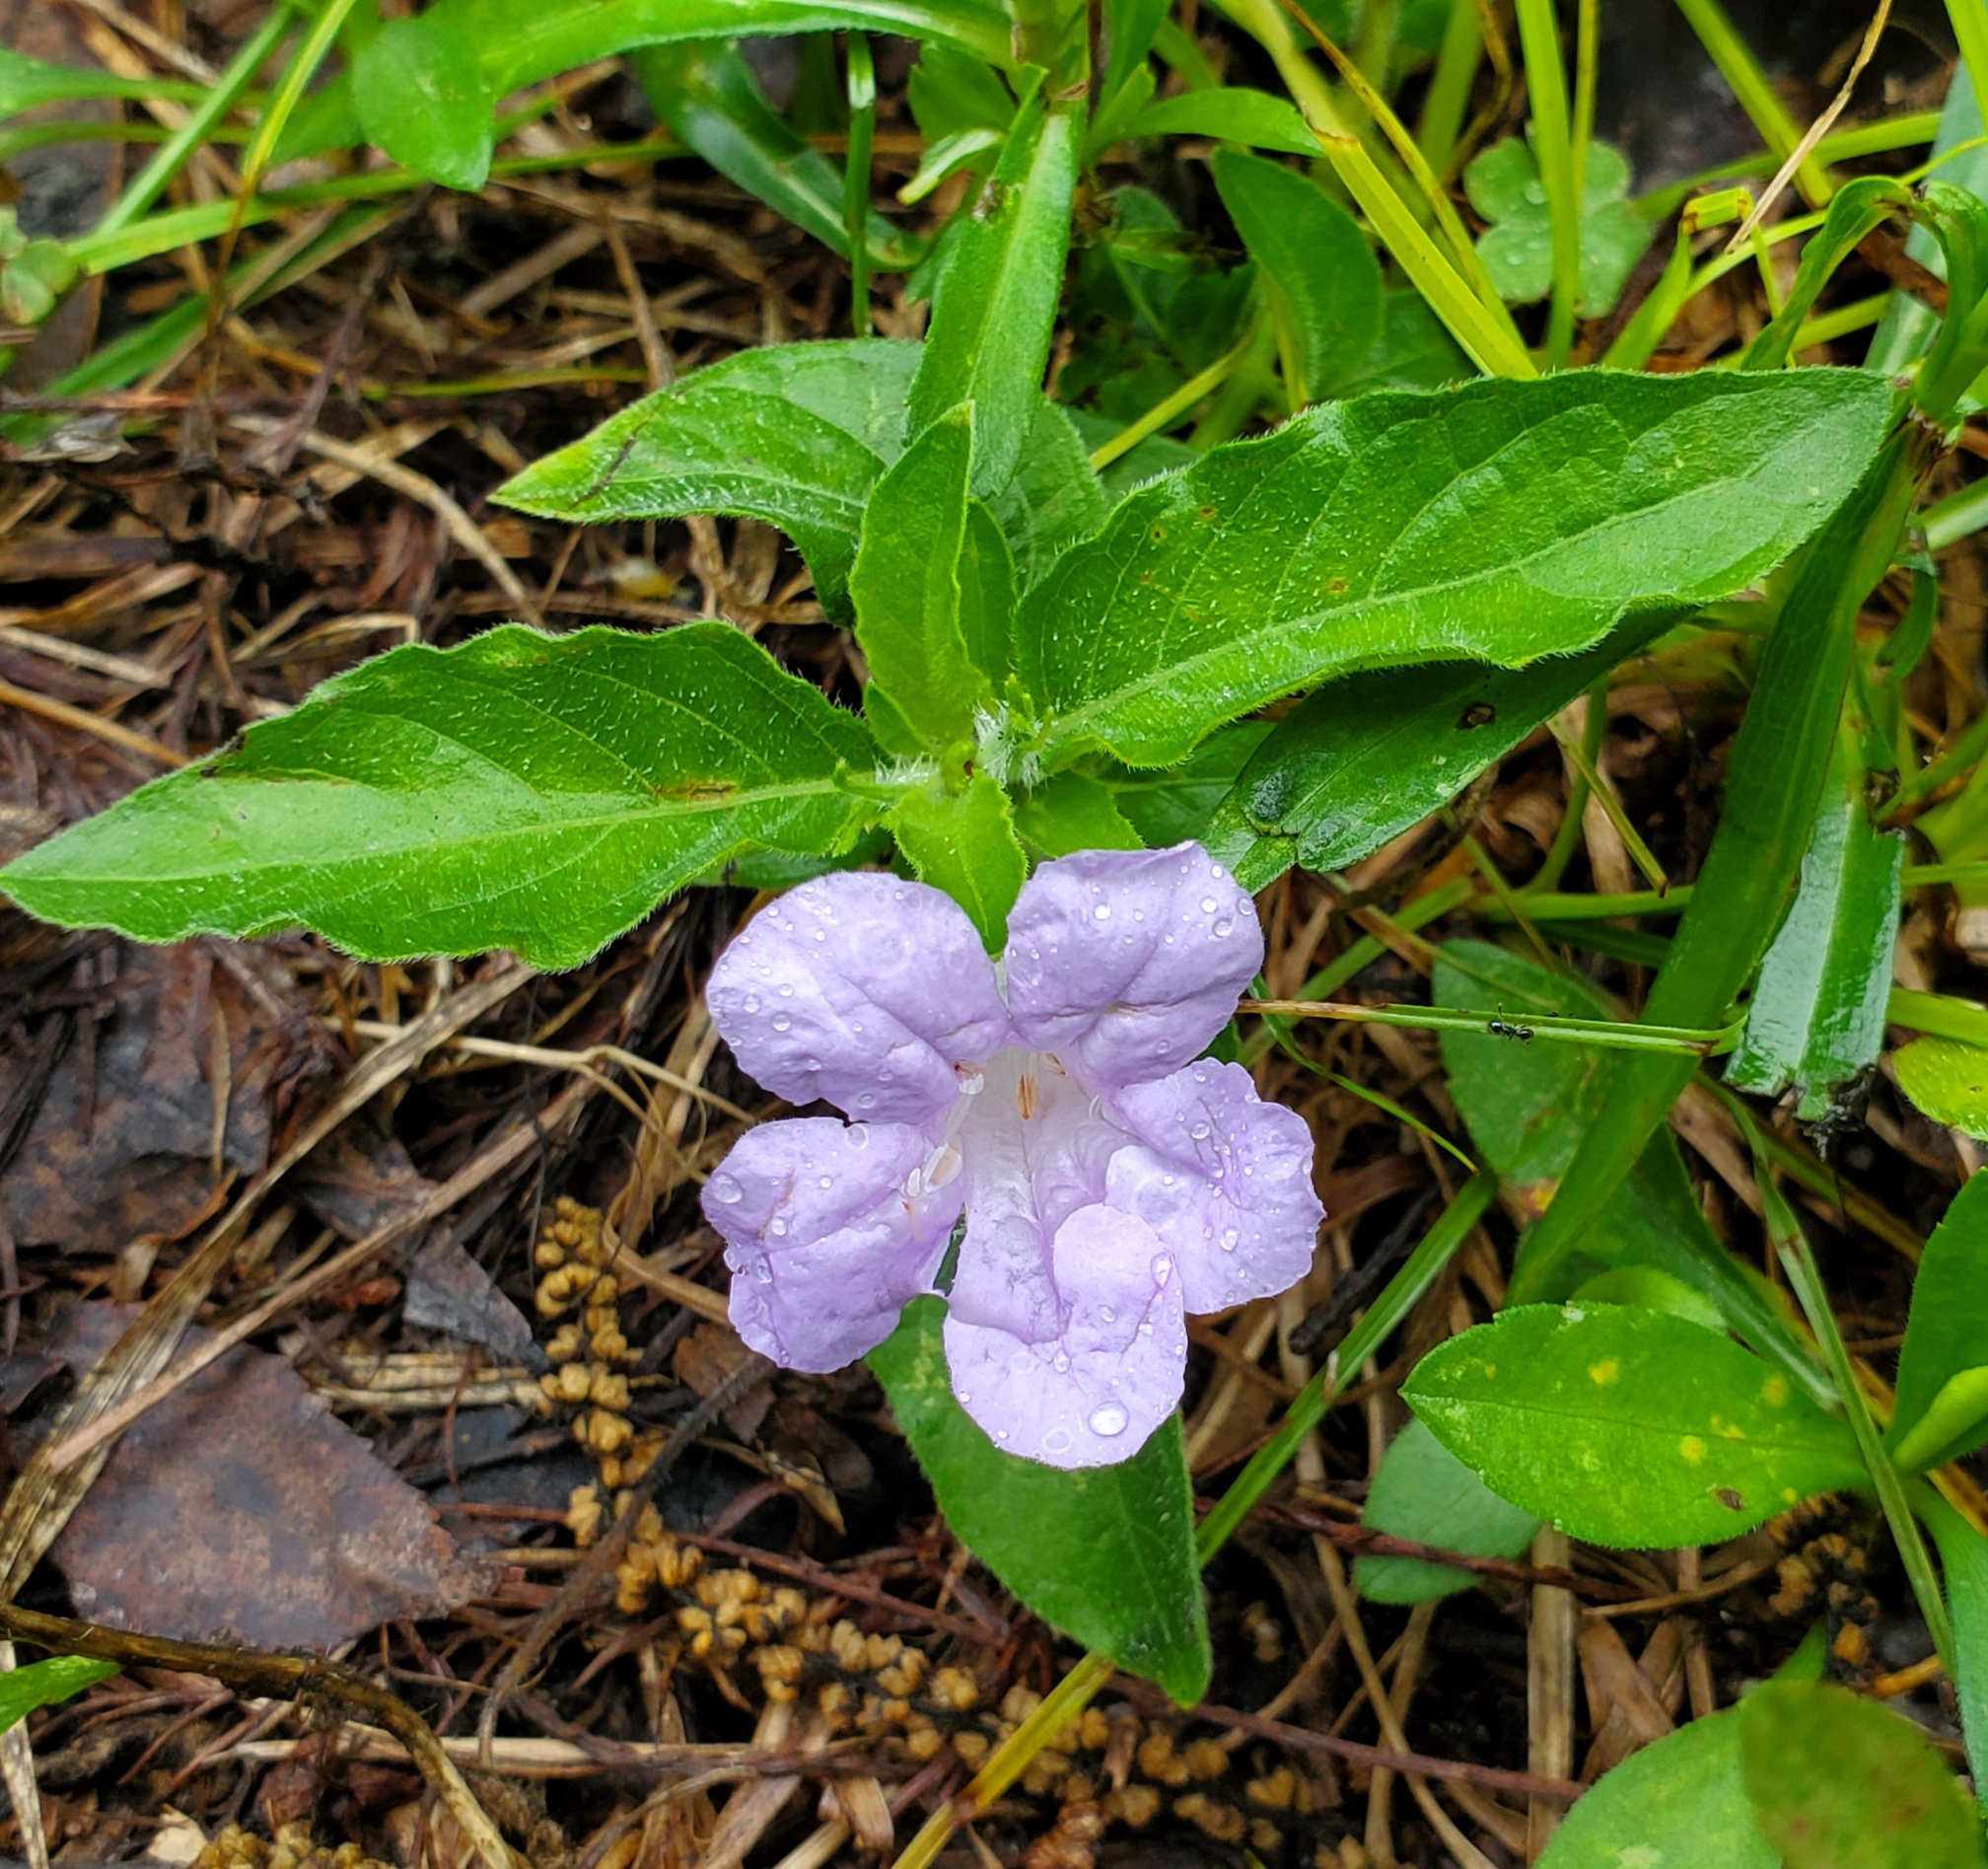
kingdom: Plantae
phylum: Tracheophyta
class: Magnoliopsida
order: Lamiales
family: Acanthaceae
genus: Ruellia
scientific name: Ruellia caroliniensis
